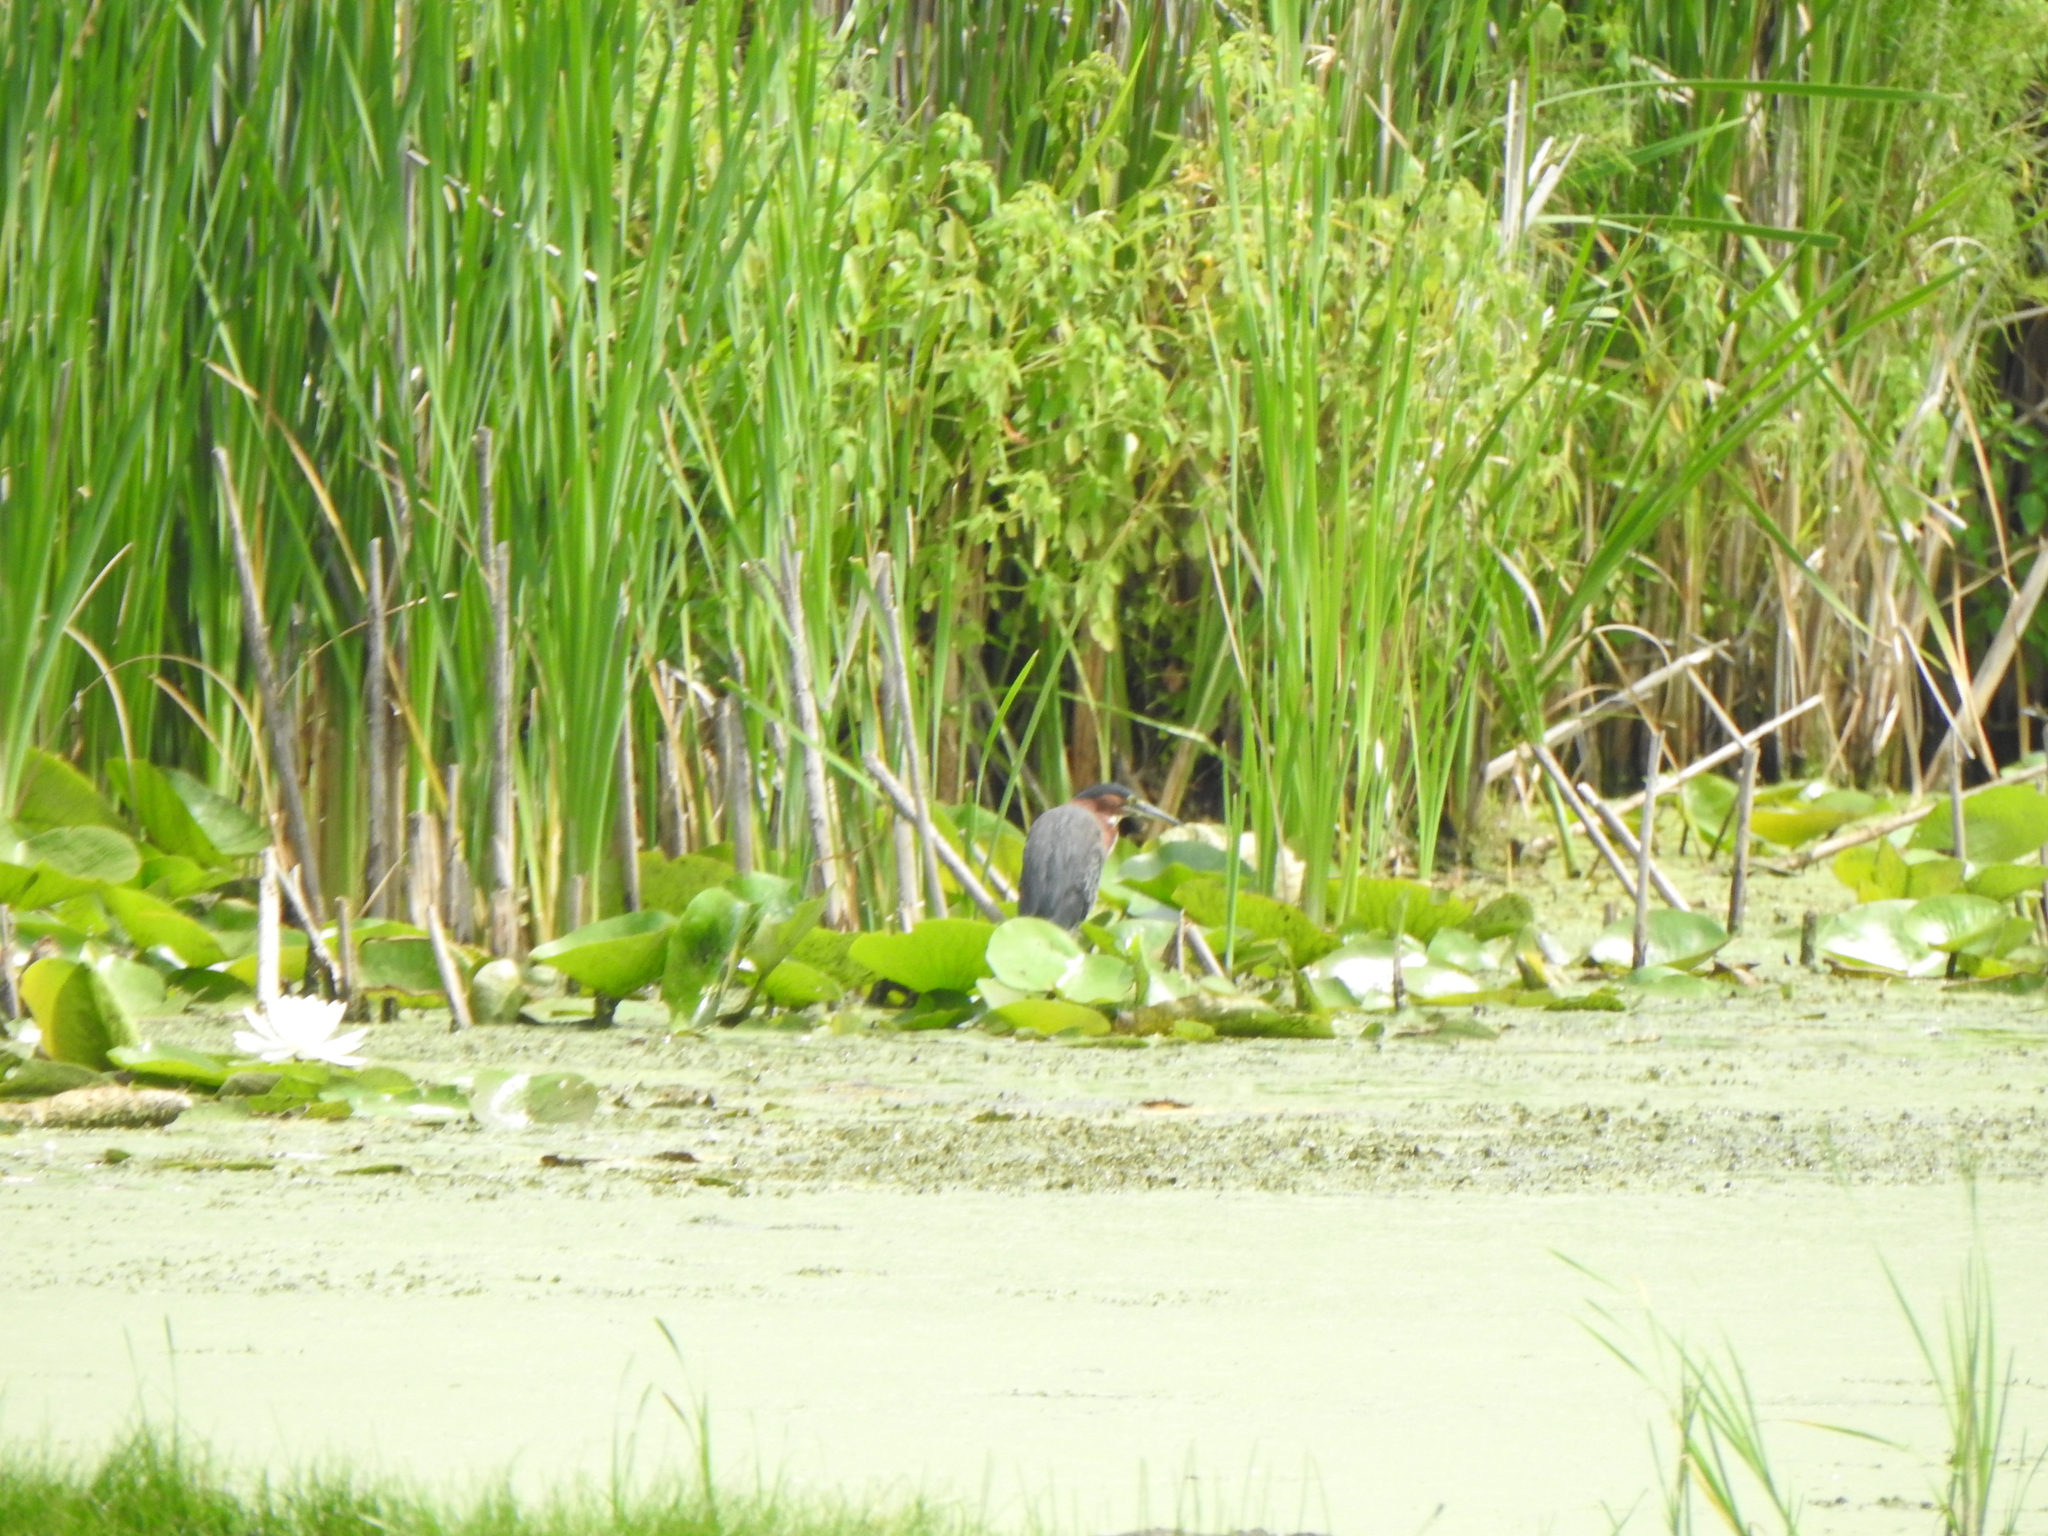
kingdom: Animalia
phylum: Chordata
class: Aves
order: Pelecaniformes
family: Ardeidae
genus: Butorides
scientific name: Butorides virescens
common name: Green heron
